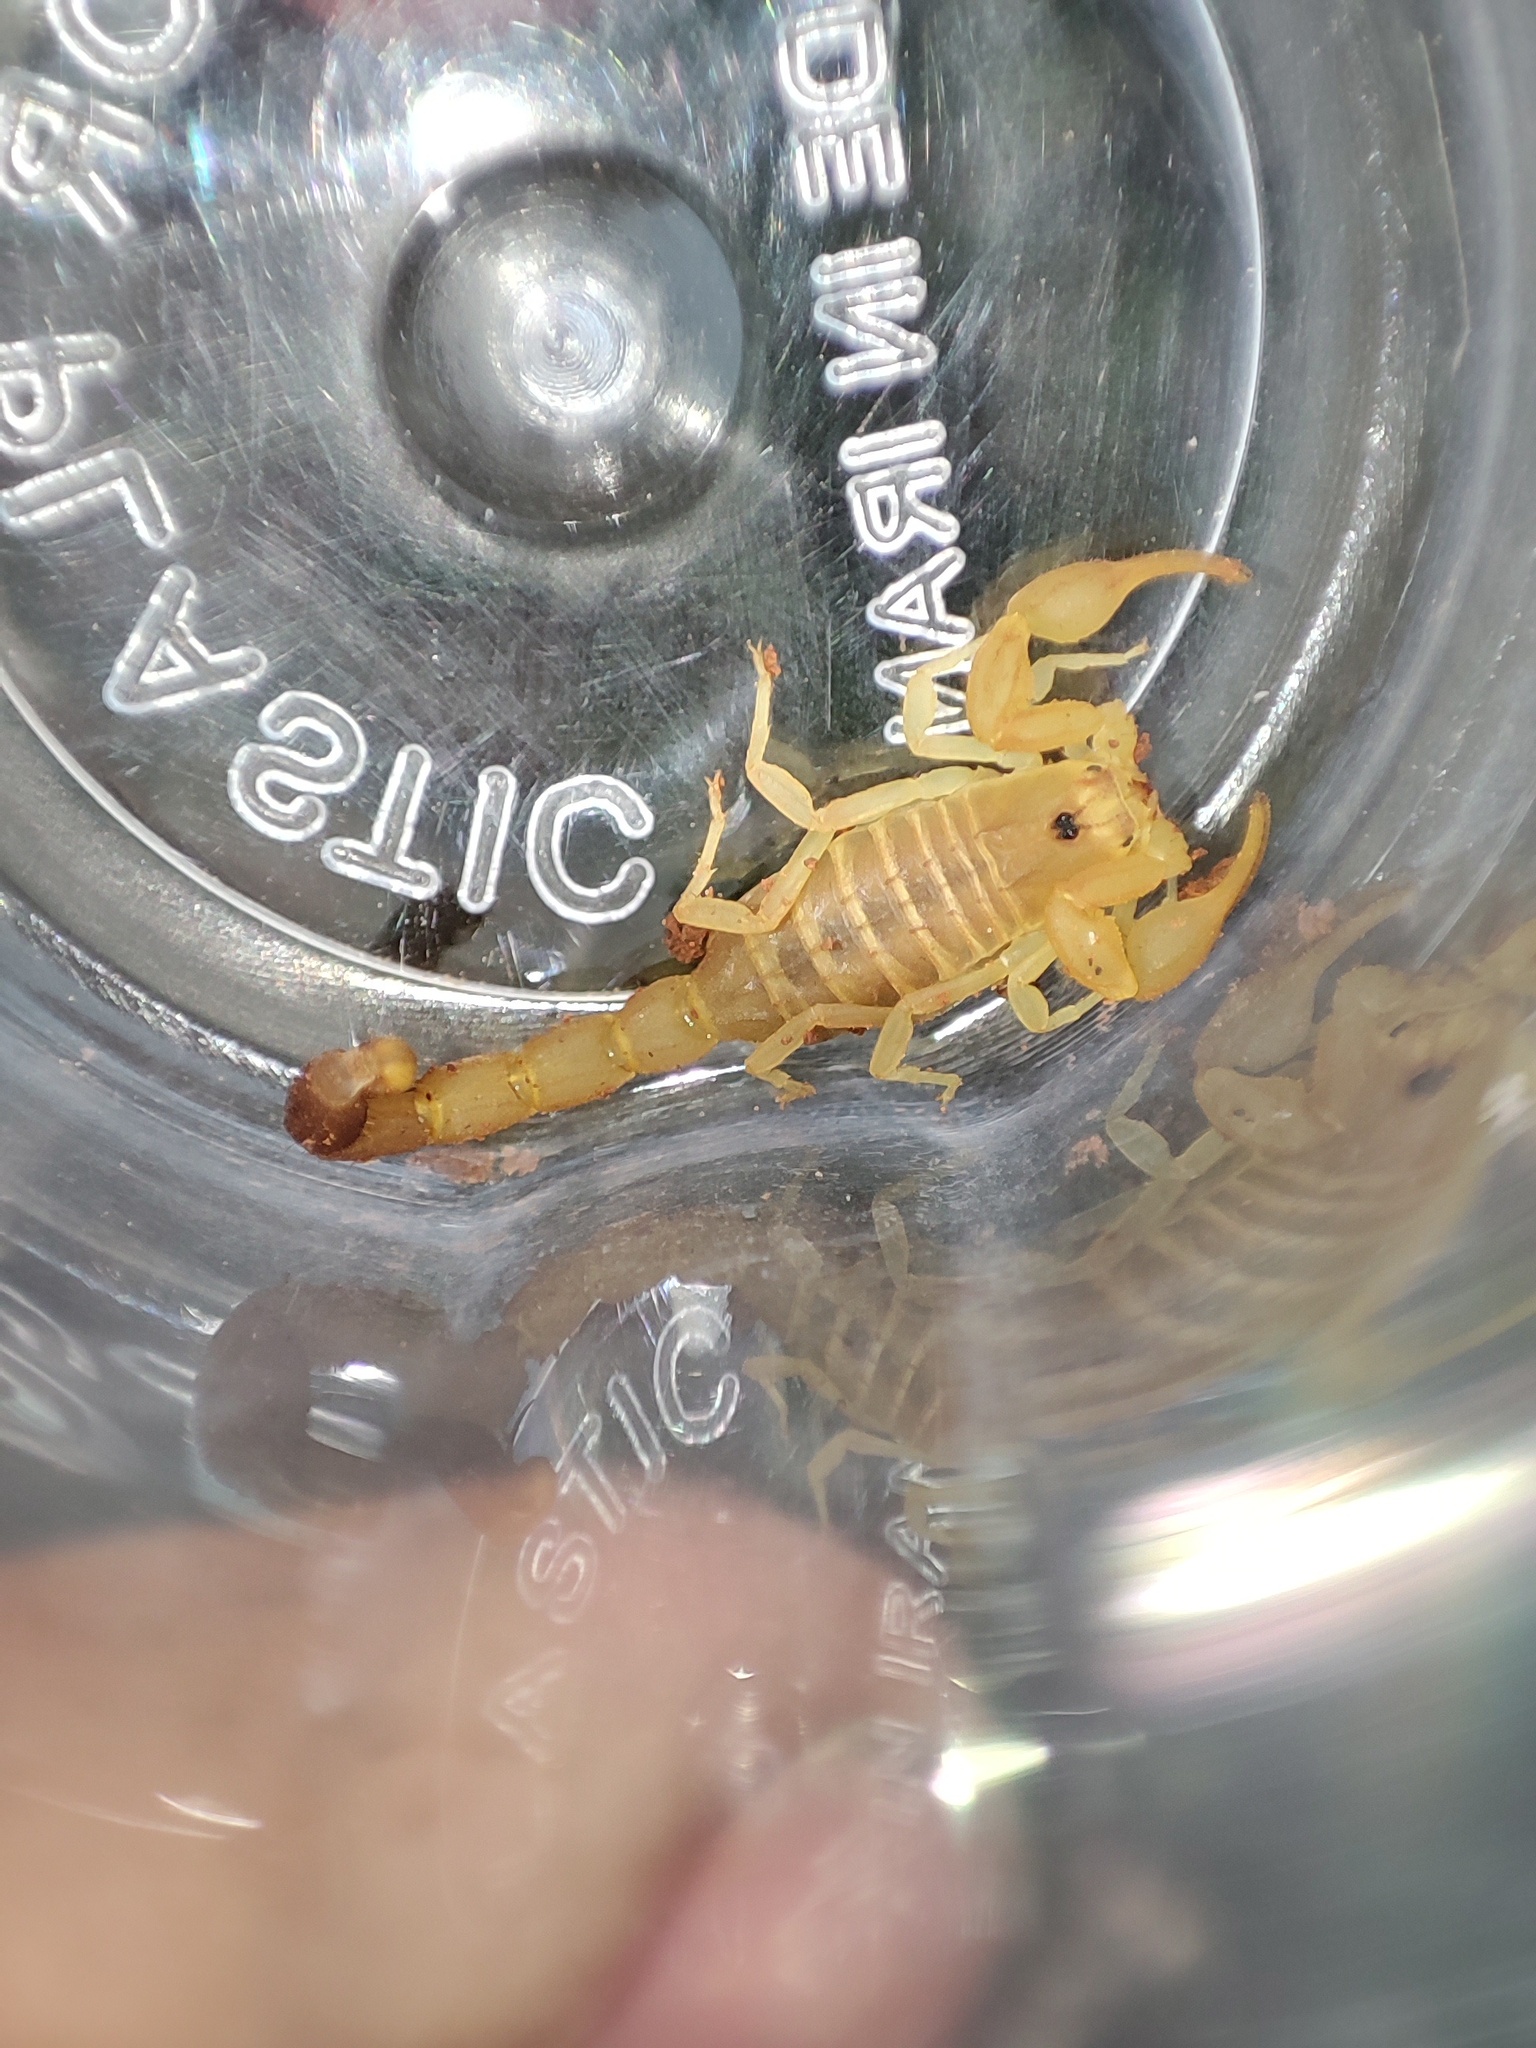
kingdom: Animalia
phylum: Arthropoda
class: Arachnida
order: Scorpiones
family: Buthidae
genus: Razianus
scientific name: Razianus zarudnyi
